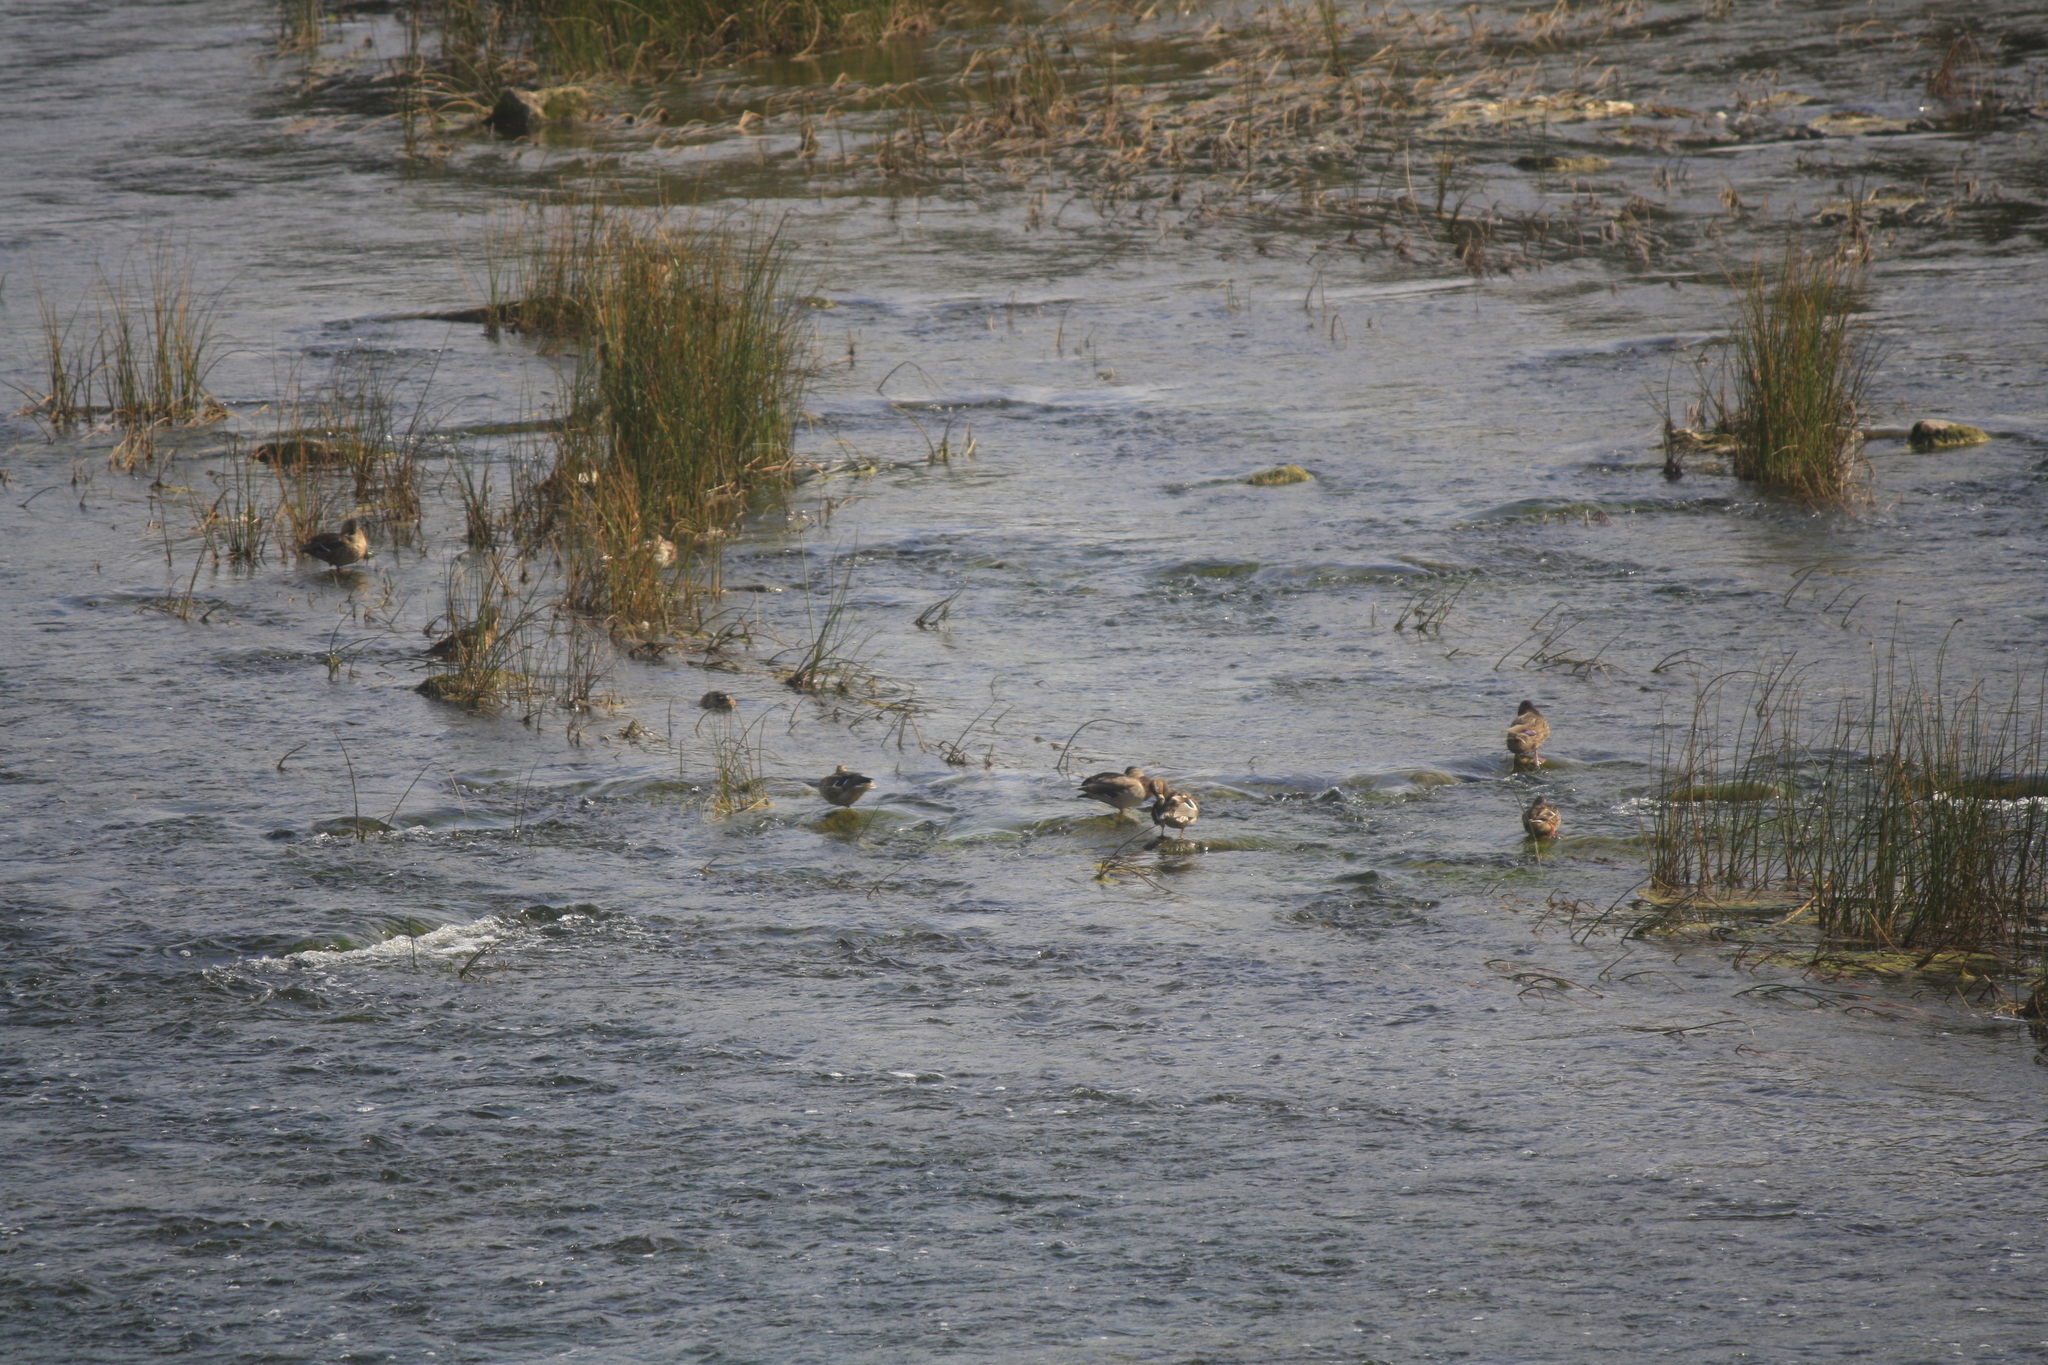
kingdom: Animalia
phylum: Chordata
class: Aves
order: Anseriformes
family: Anatidae
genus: Anas
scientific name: Anas platyrhynchos
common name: Mallard
